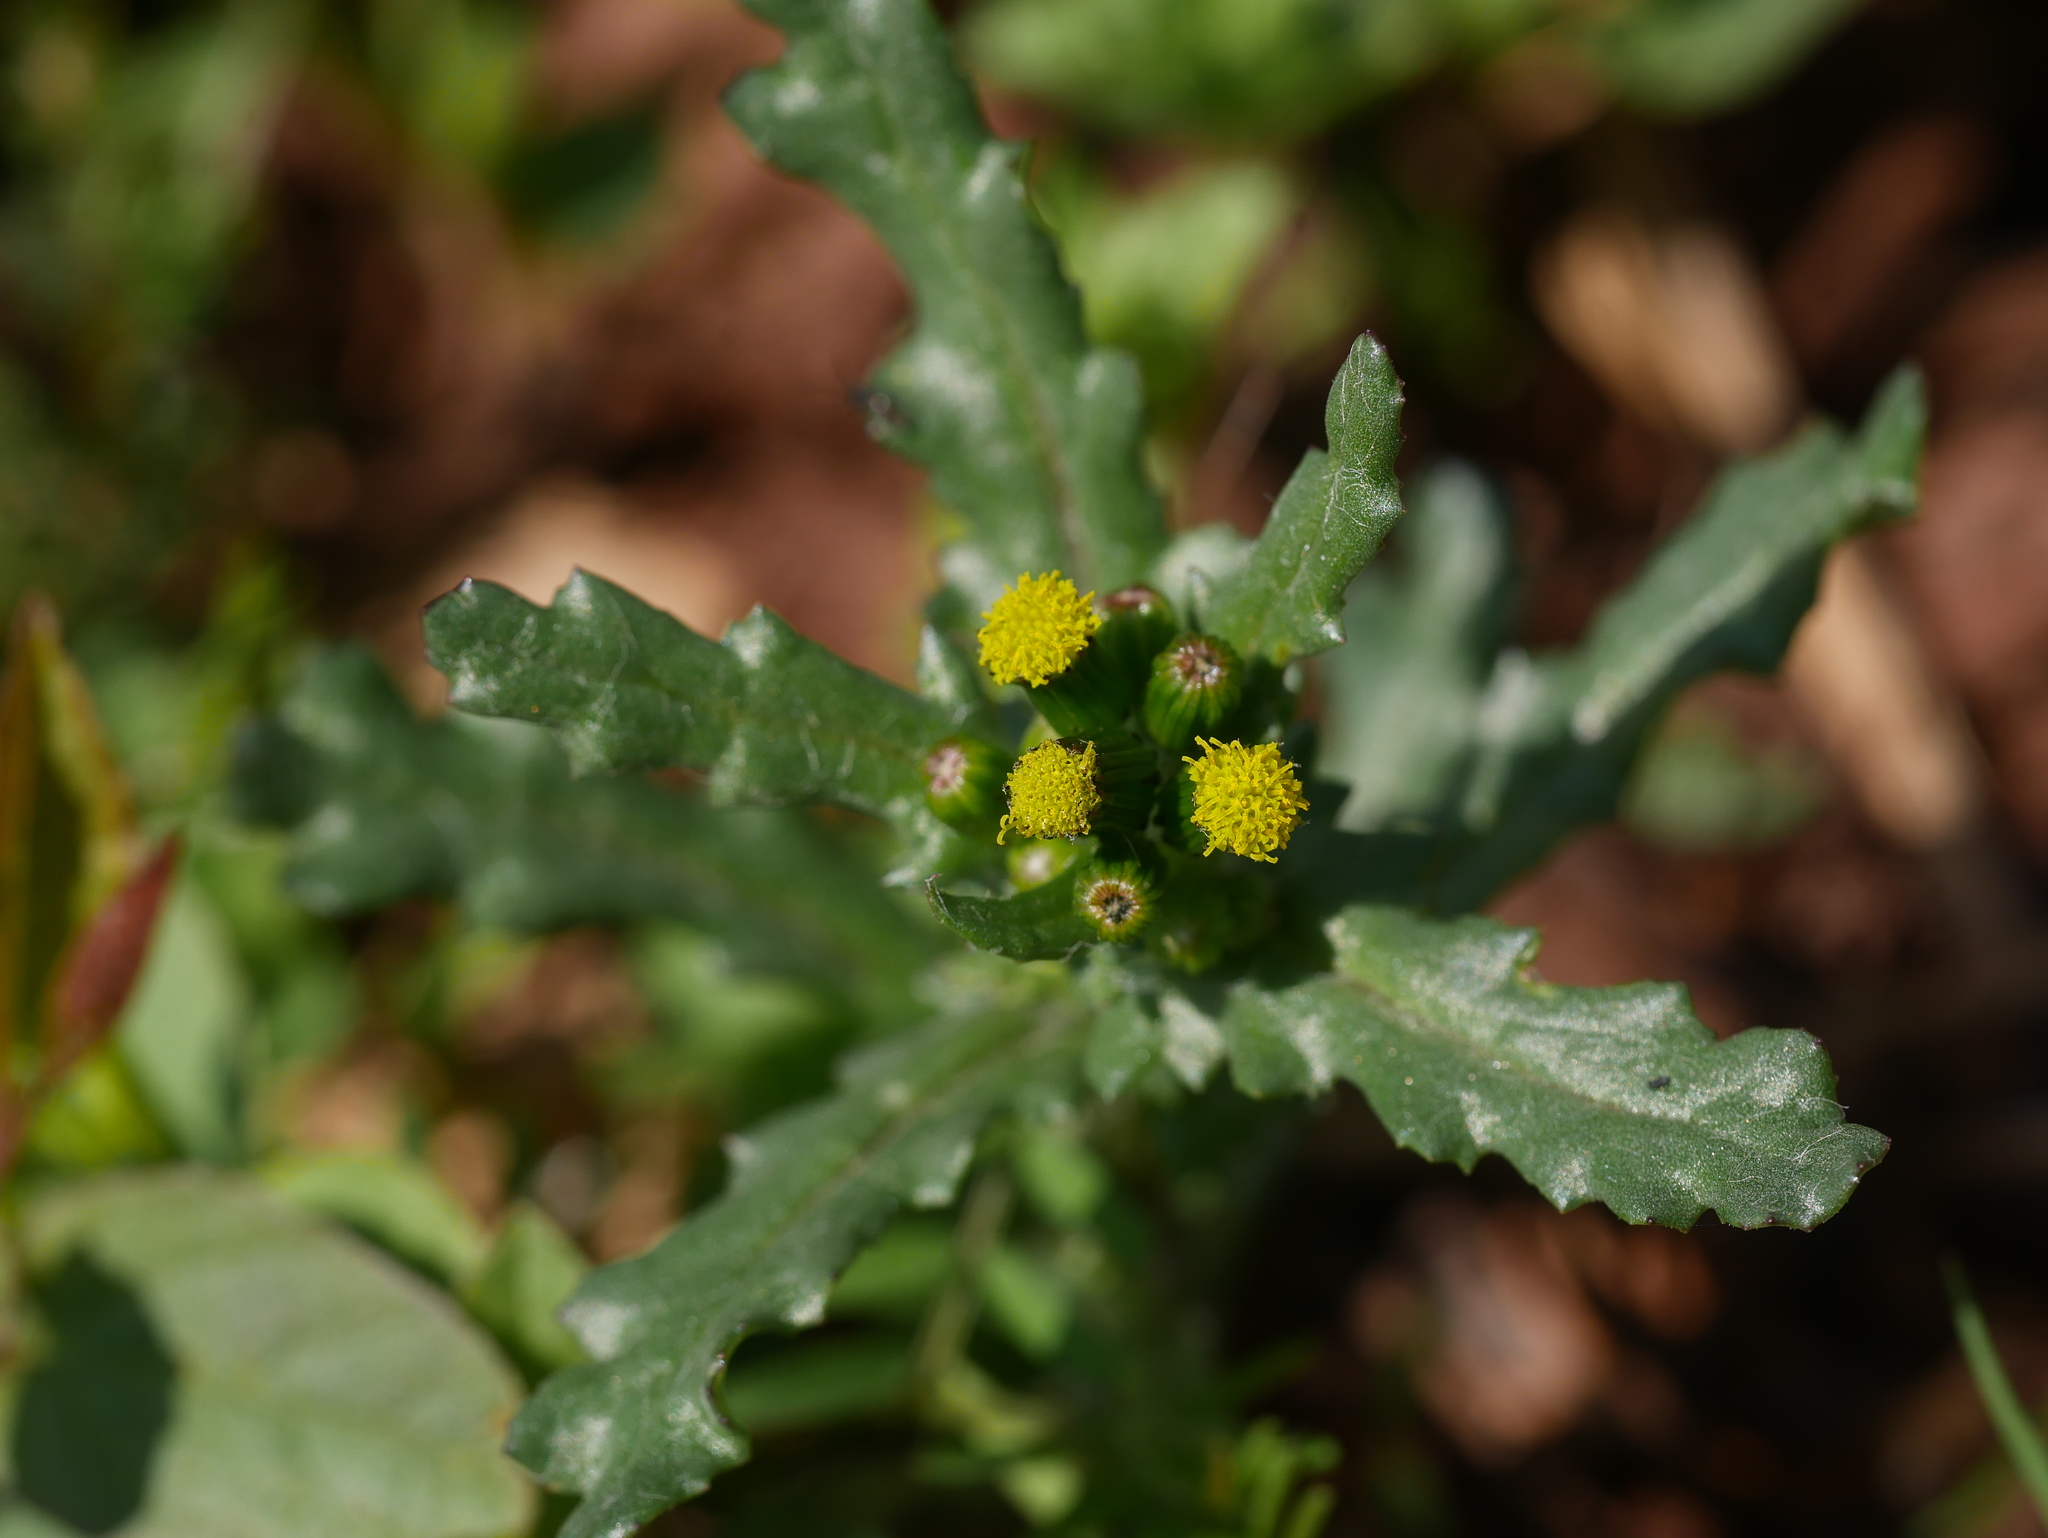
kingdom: Plantae
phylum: Tracheophyta
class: Magnoliopsida
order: Asterales
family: Asteraceae
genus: Senecio
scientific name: Senecio vulgaris
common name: Old-man-in-the-spring
